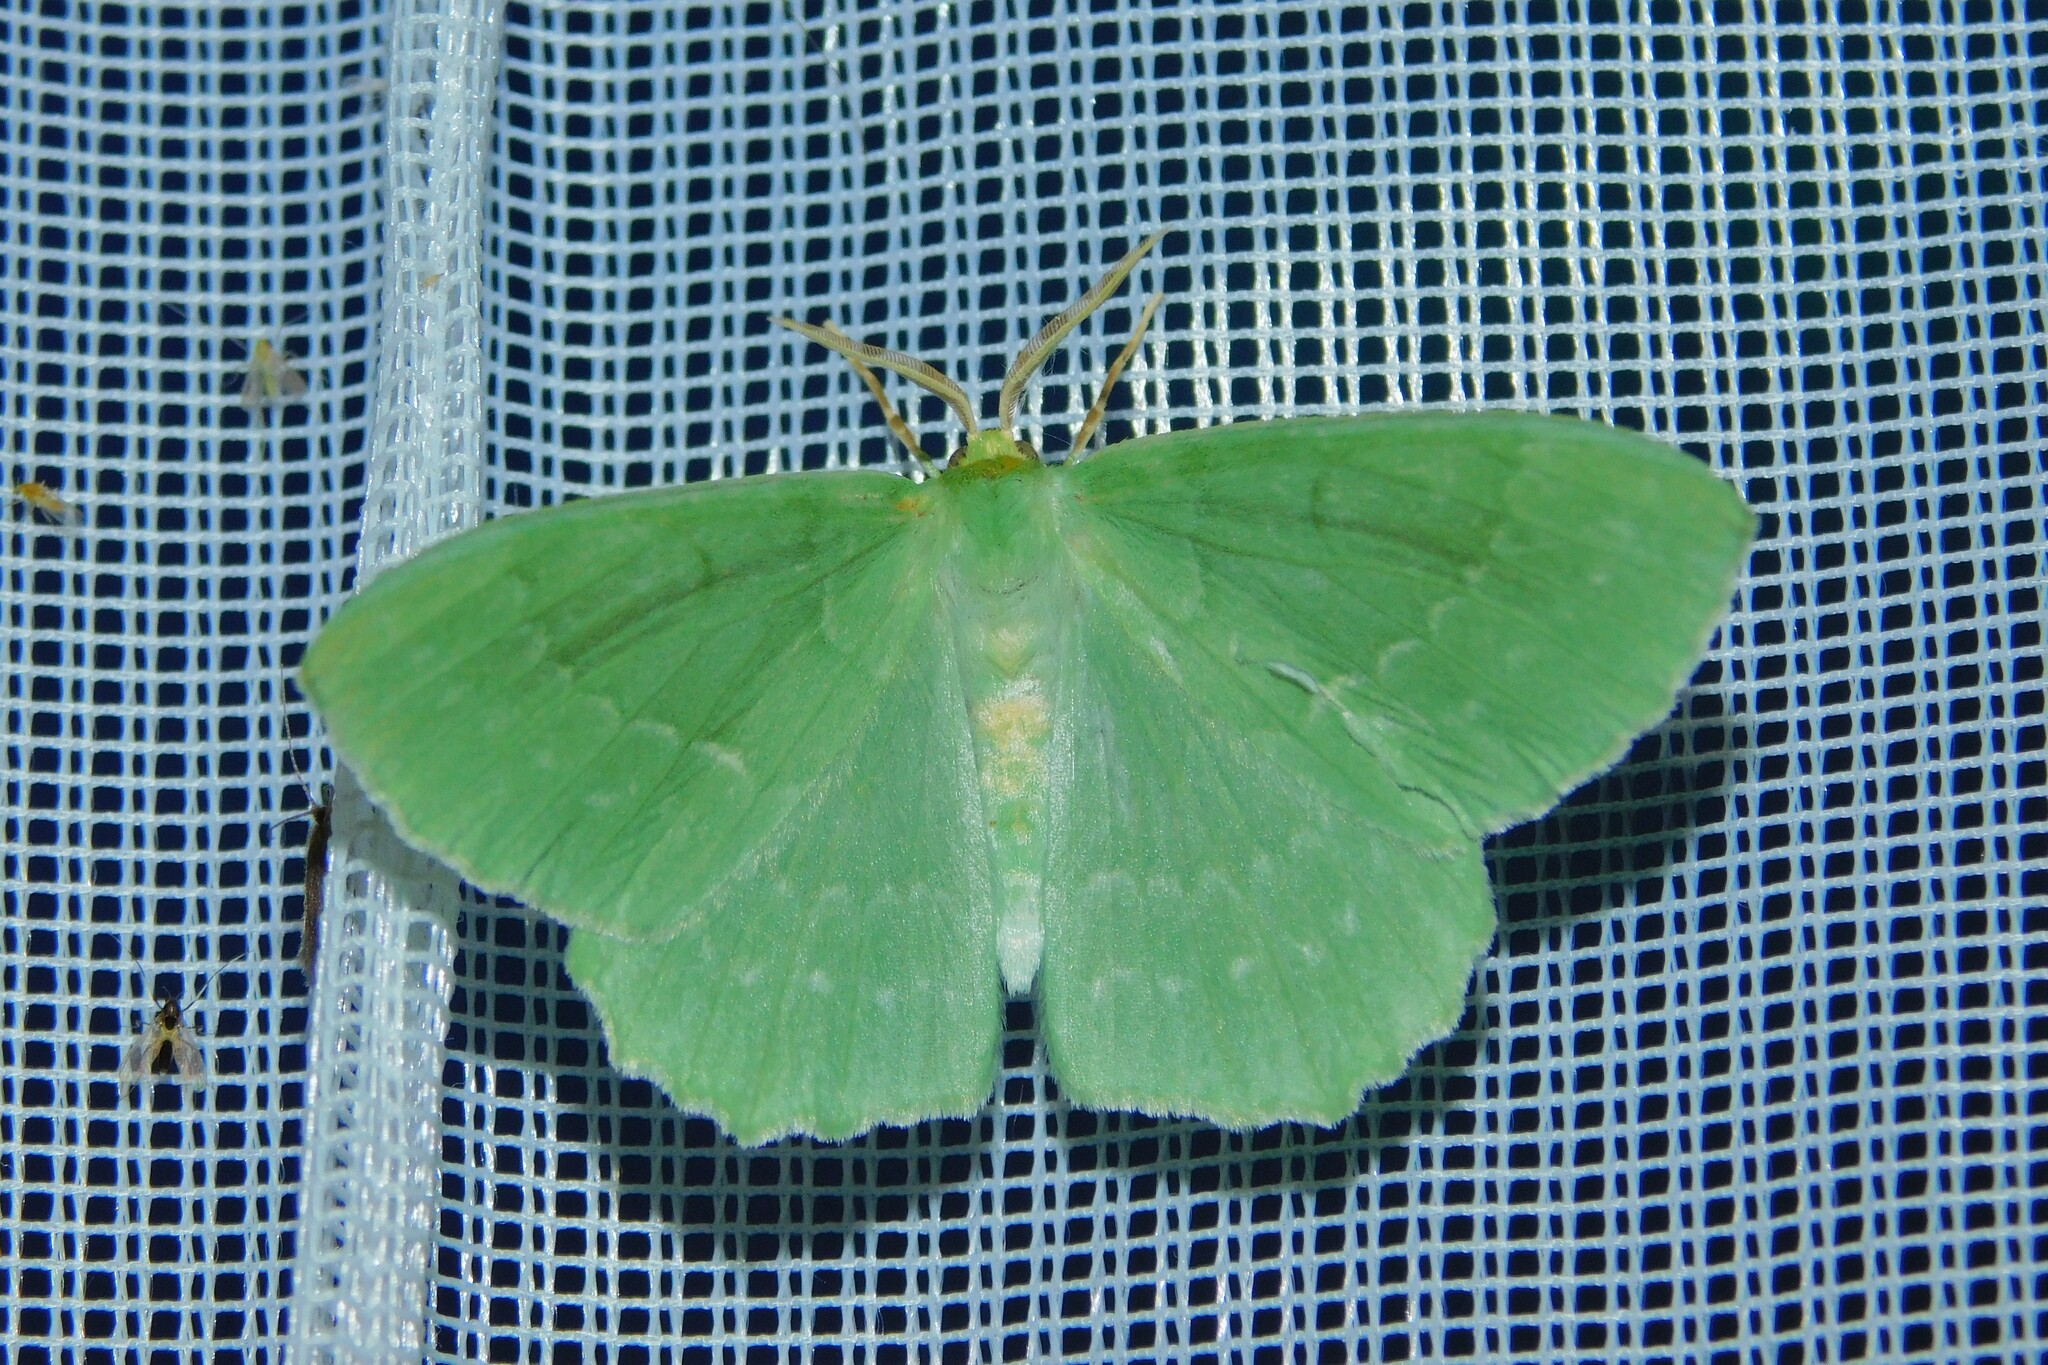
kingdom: Animalia
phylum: Arthropoda
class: Insecta
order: Lepidoptera
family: Geometridae
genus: Geometra
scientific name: Geometra papilionaria
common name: Large emerald
